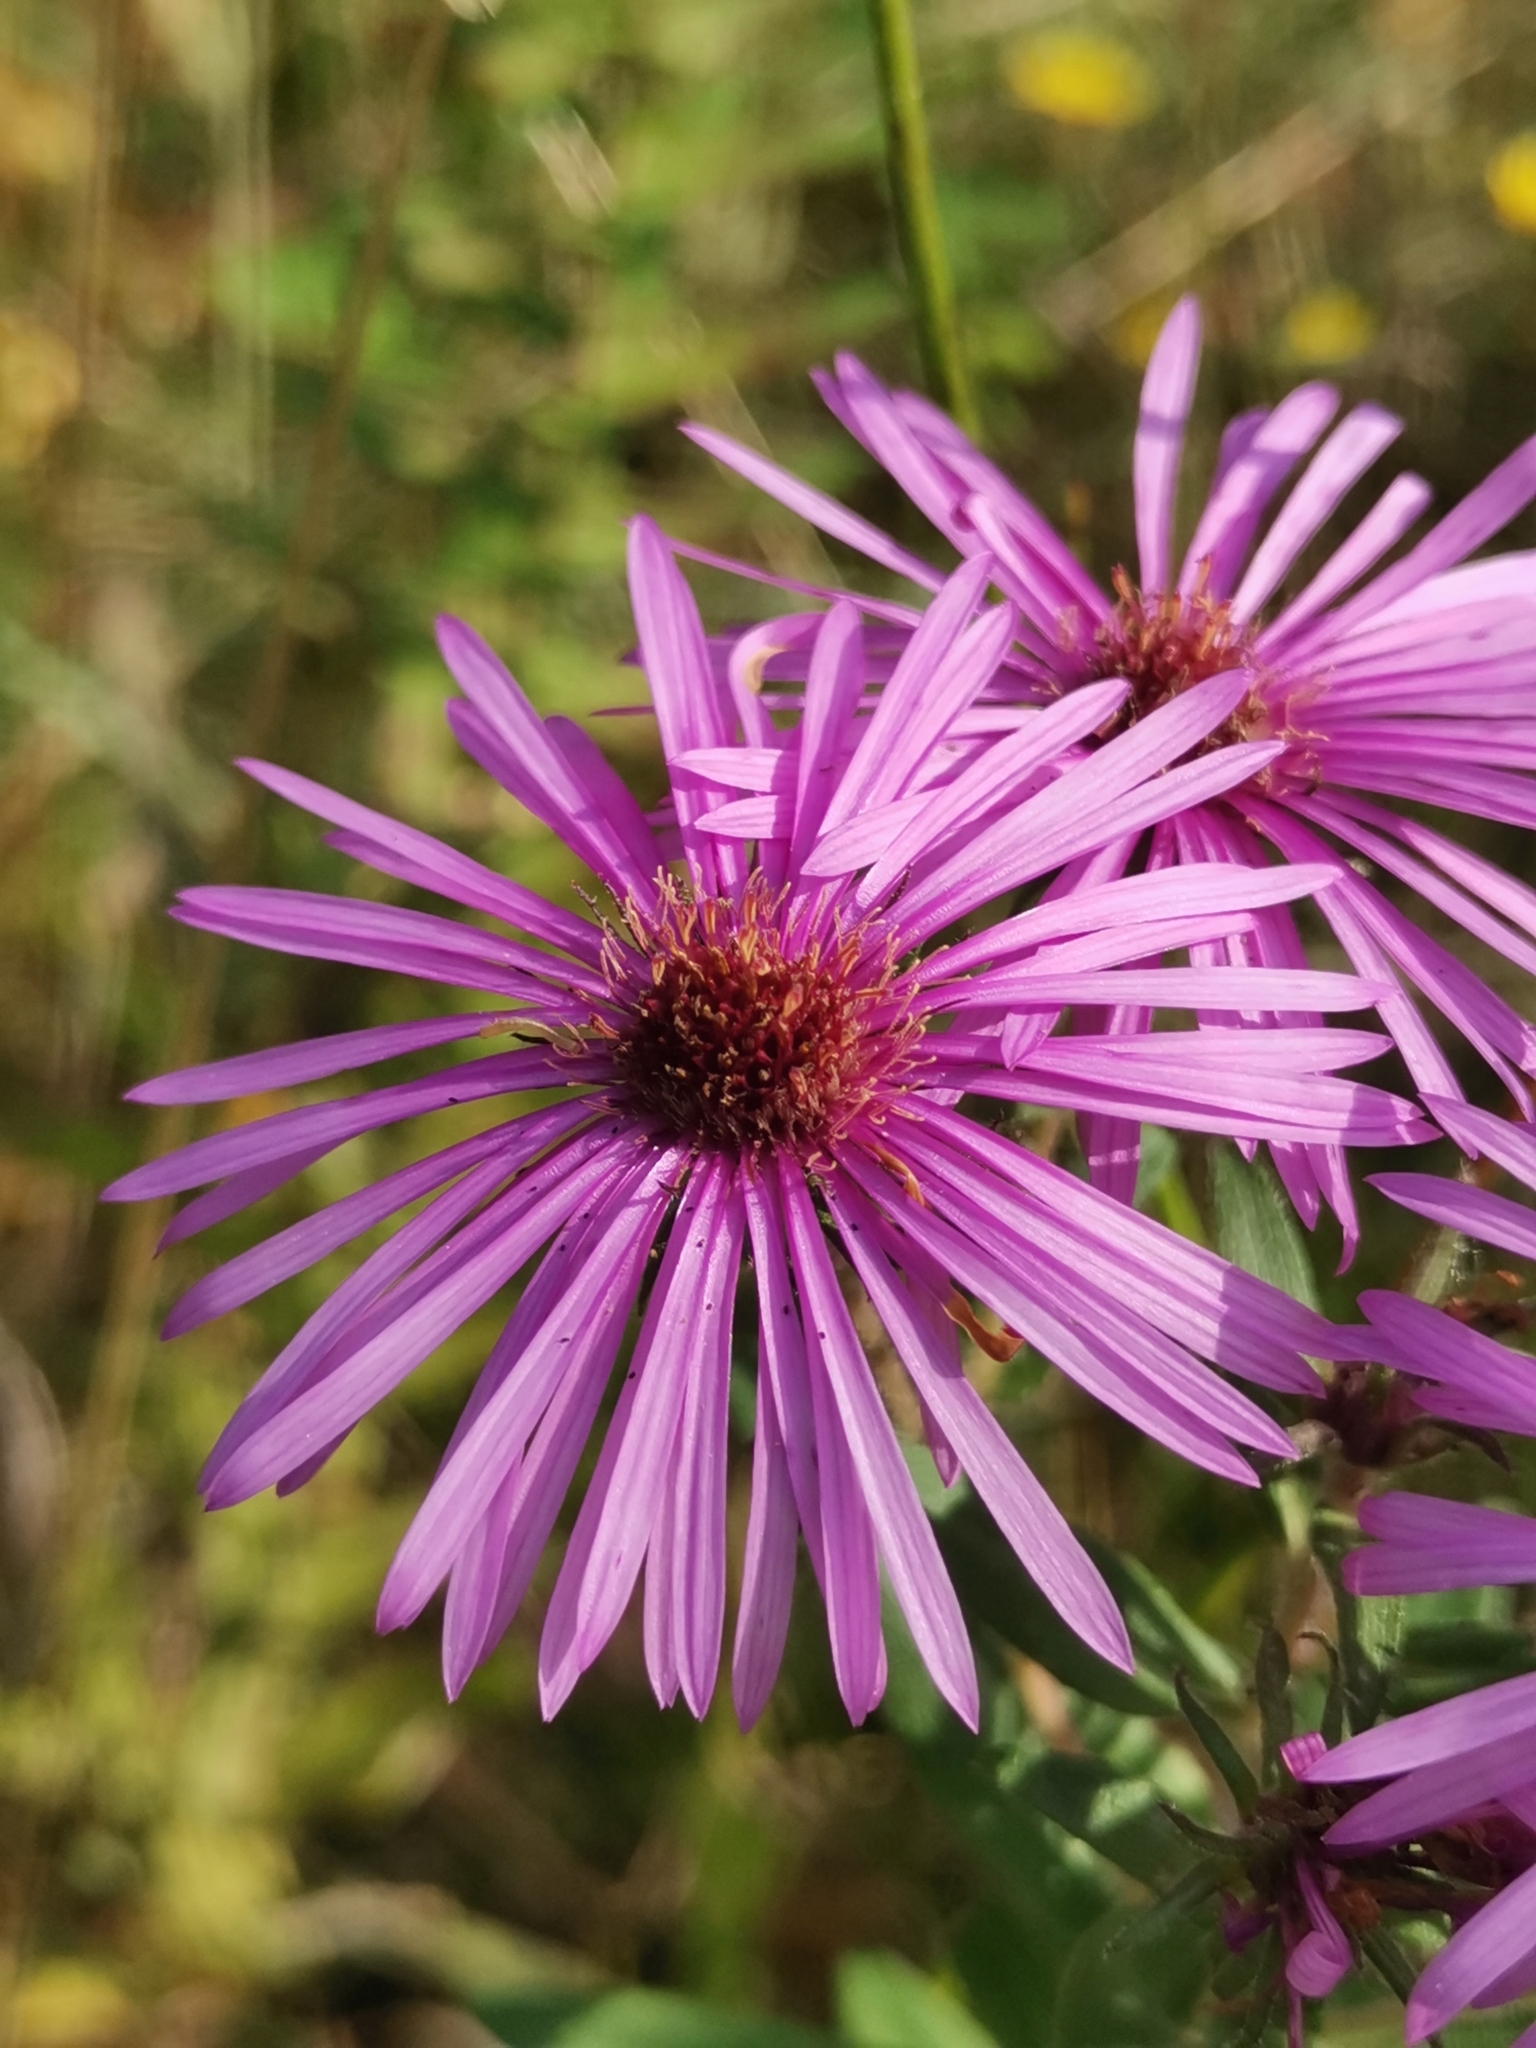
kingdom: Plantae
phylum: Tracheophyta
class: Magnoliopsida
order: Asterales
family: Asteraceae
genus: Symphyotrichum
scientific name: Symphyotrichum novae-angliae
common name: Michaelmas daisy
